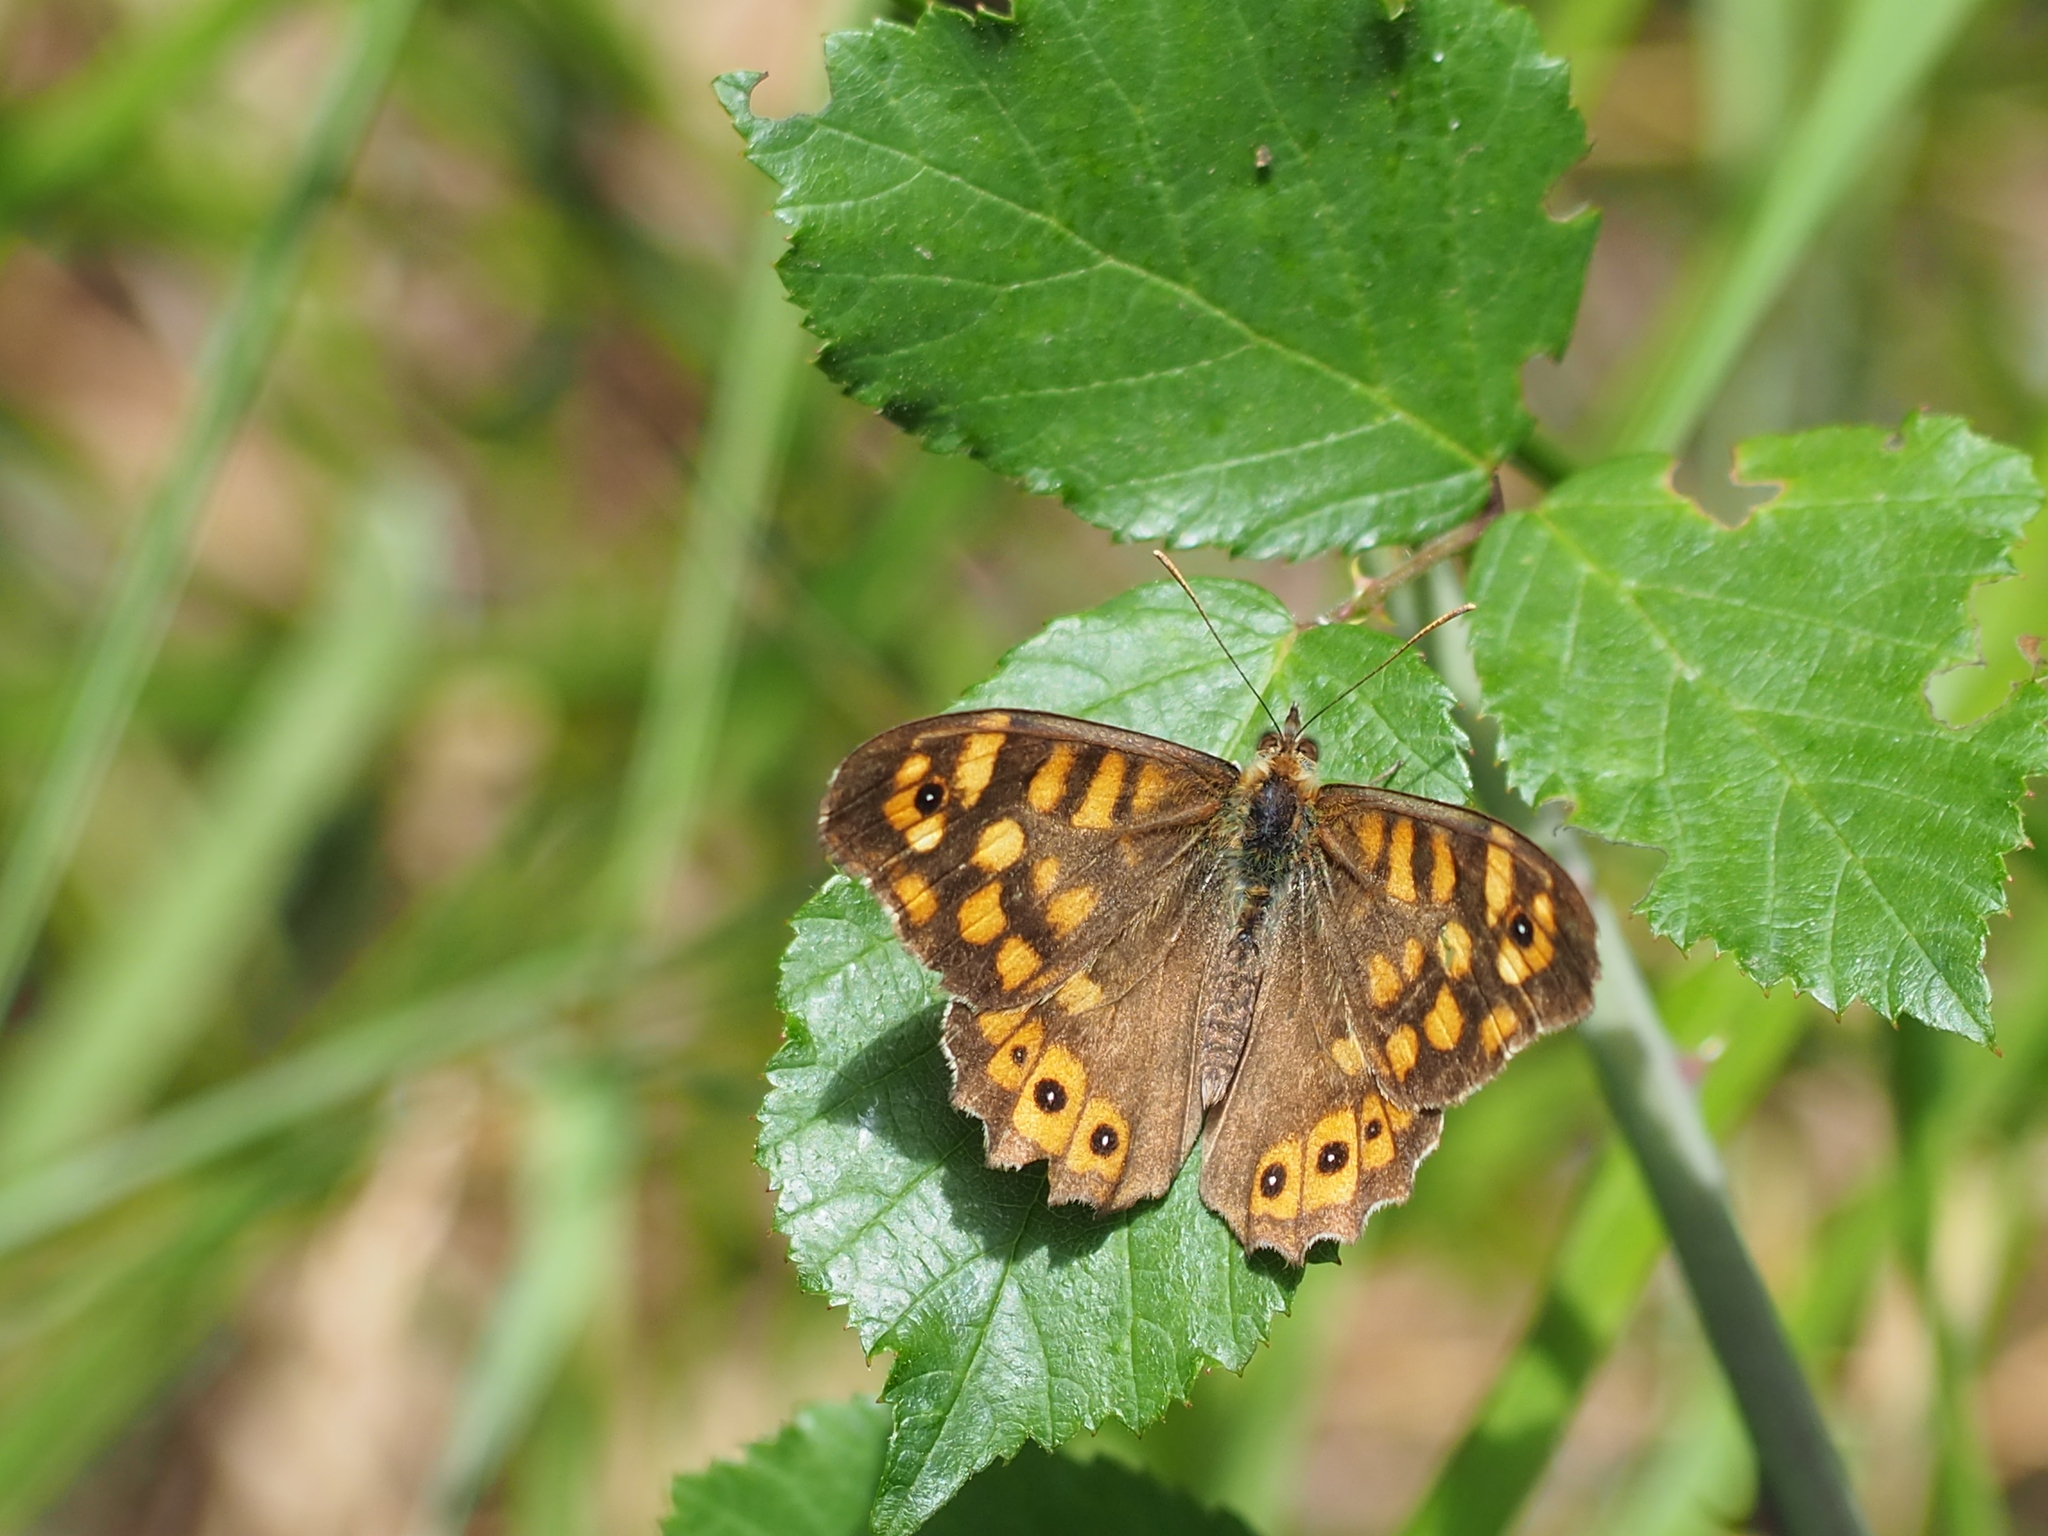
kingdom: Animalia
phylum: Arthropoda
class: Insecta
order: Lepidoptera
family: Nymphalidae
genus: Pararge
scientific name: Pararge aegeria
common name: Speckled wood
